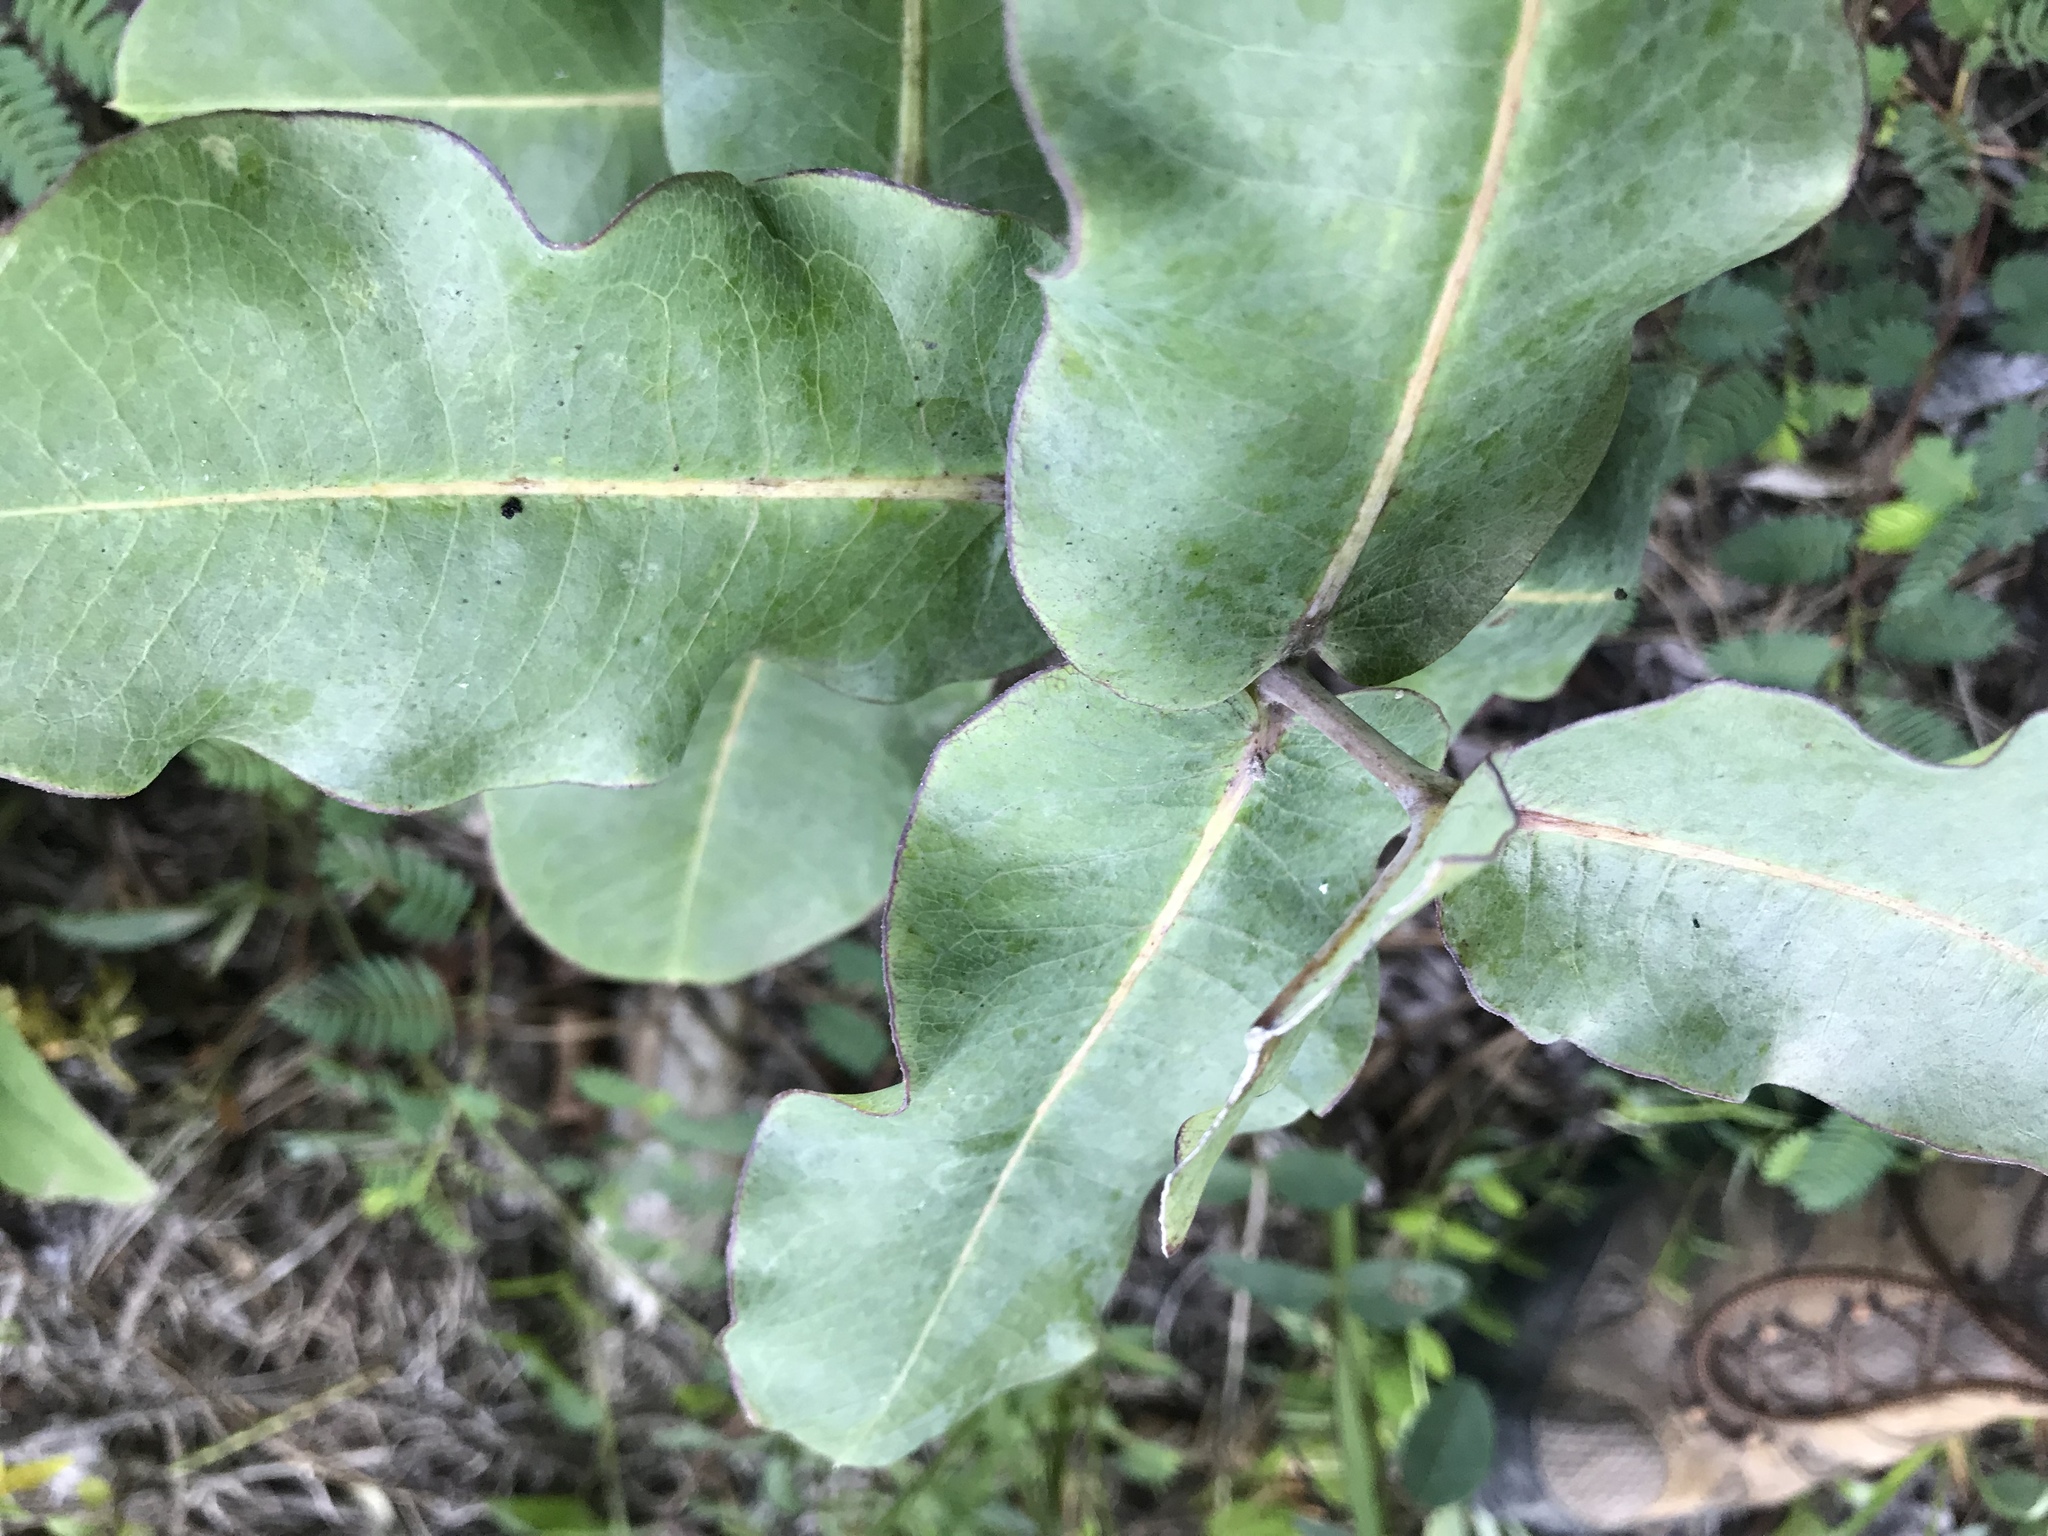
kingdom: Plantae
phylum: Tracheophyta
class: Magnoliopsida
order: Gentianales
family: Apocynaceae
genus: Asclepias
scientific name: Asclepias amplexicaulis
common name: Blunt-leaf milkweed
